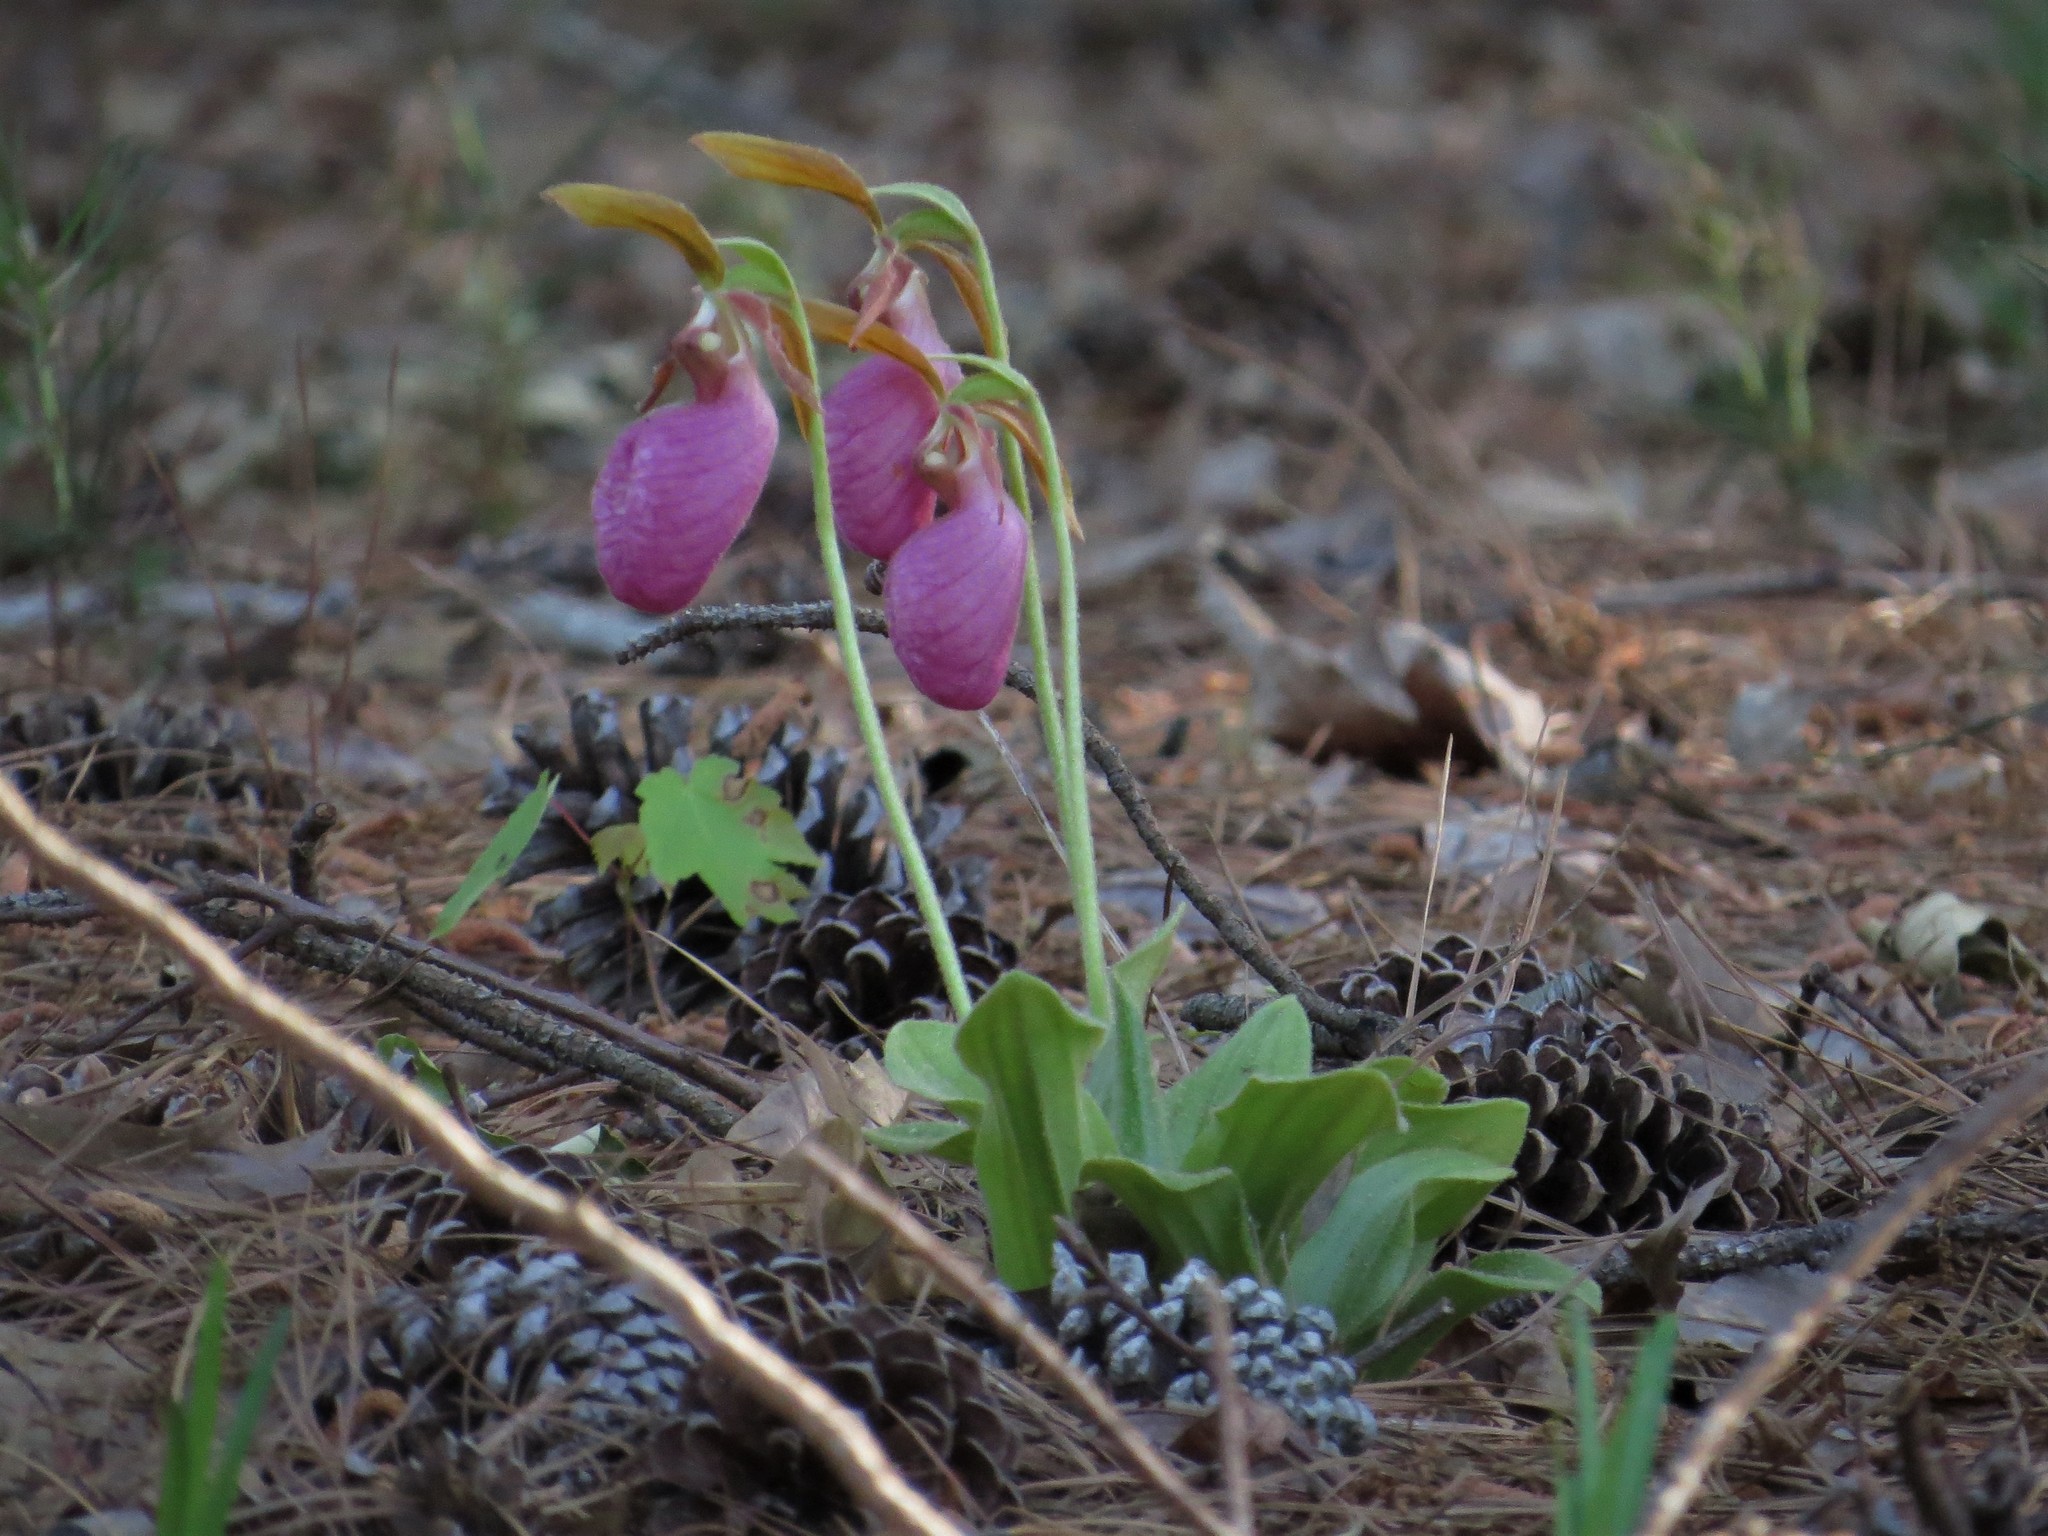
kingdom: Plantae
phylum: Tracheophyta
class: Liliopsida
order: Asparagales
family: Orchidaceae
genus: Cypripedium
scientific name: Cypripedium acaule
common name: Pink lady's-slipper
